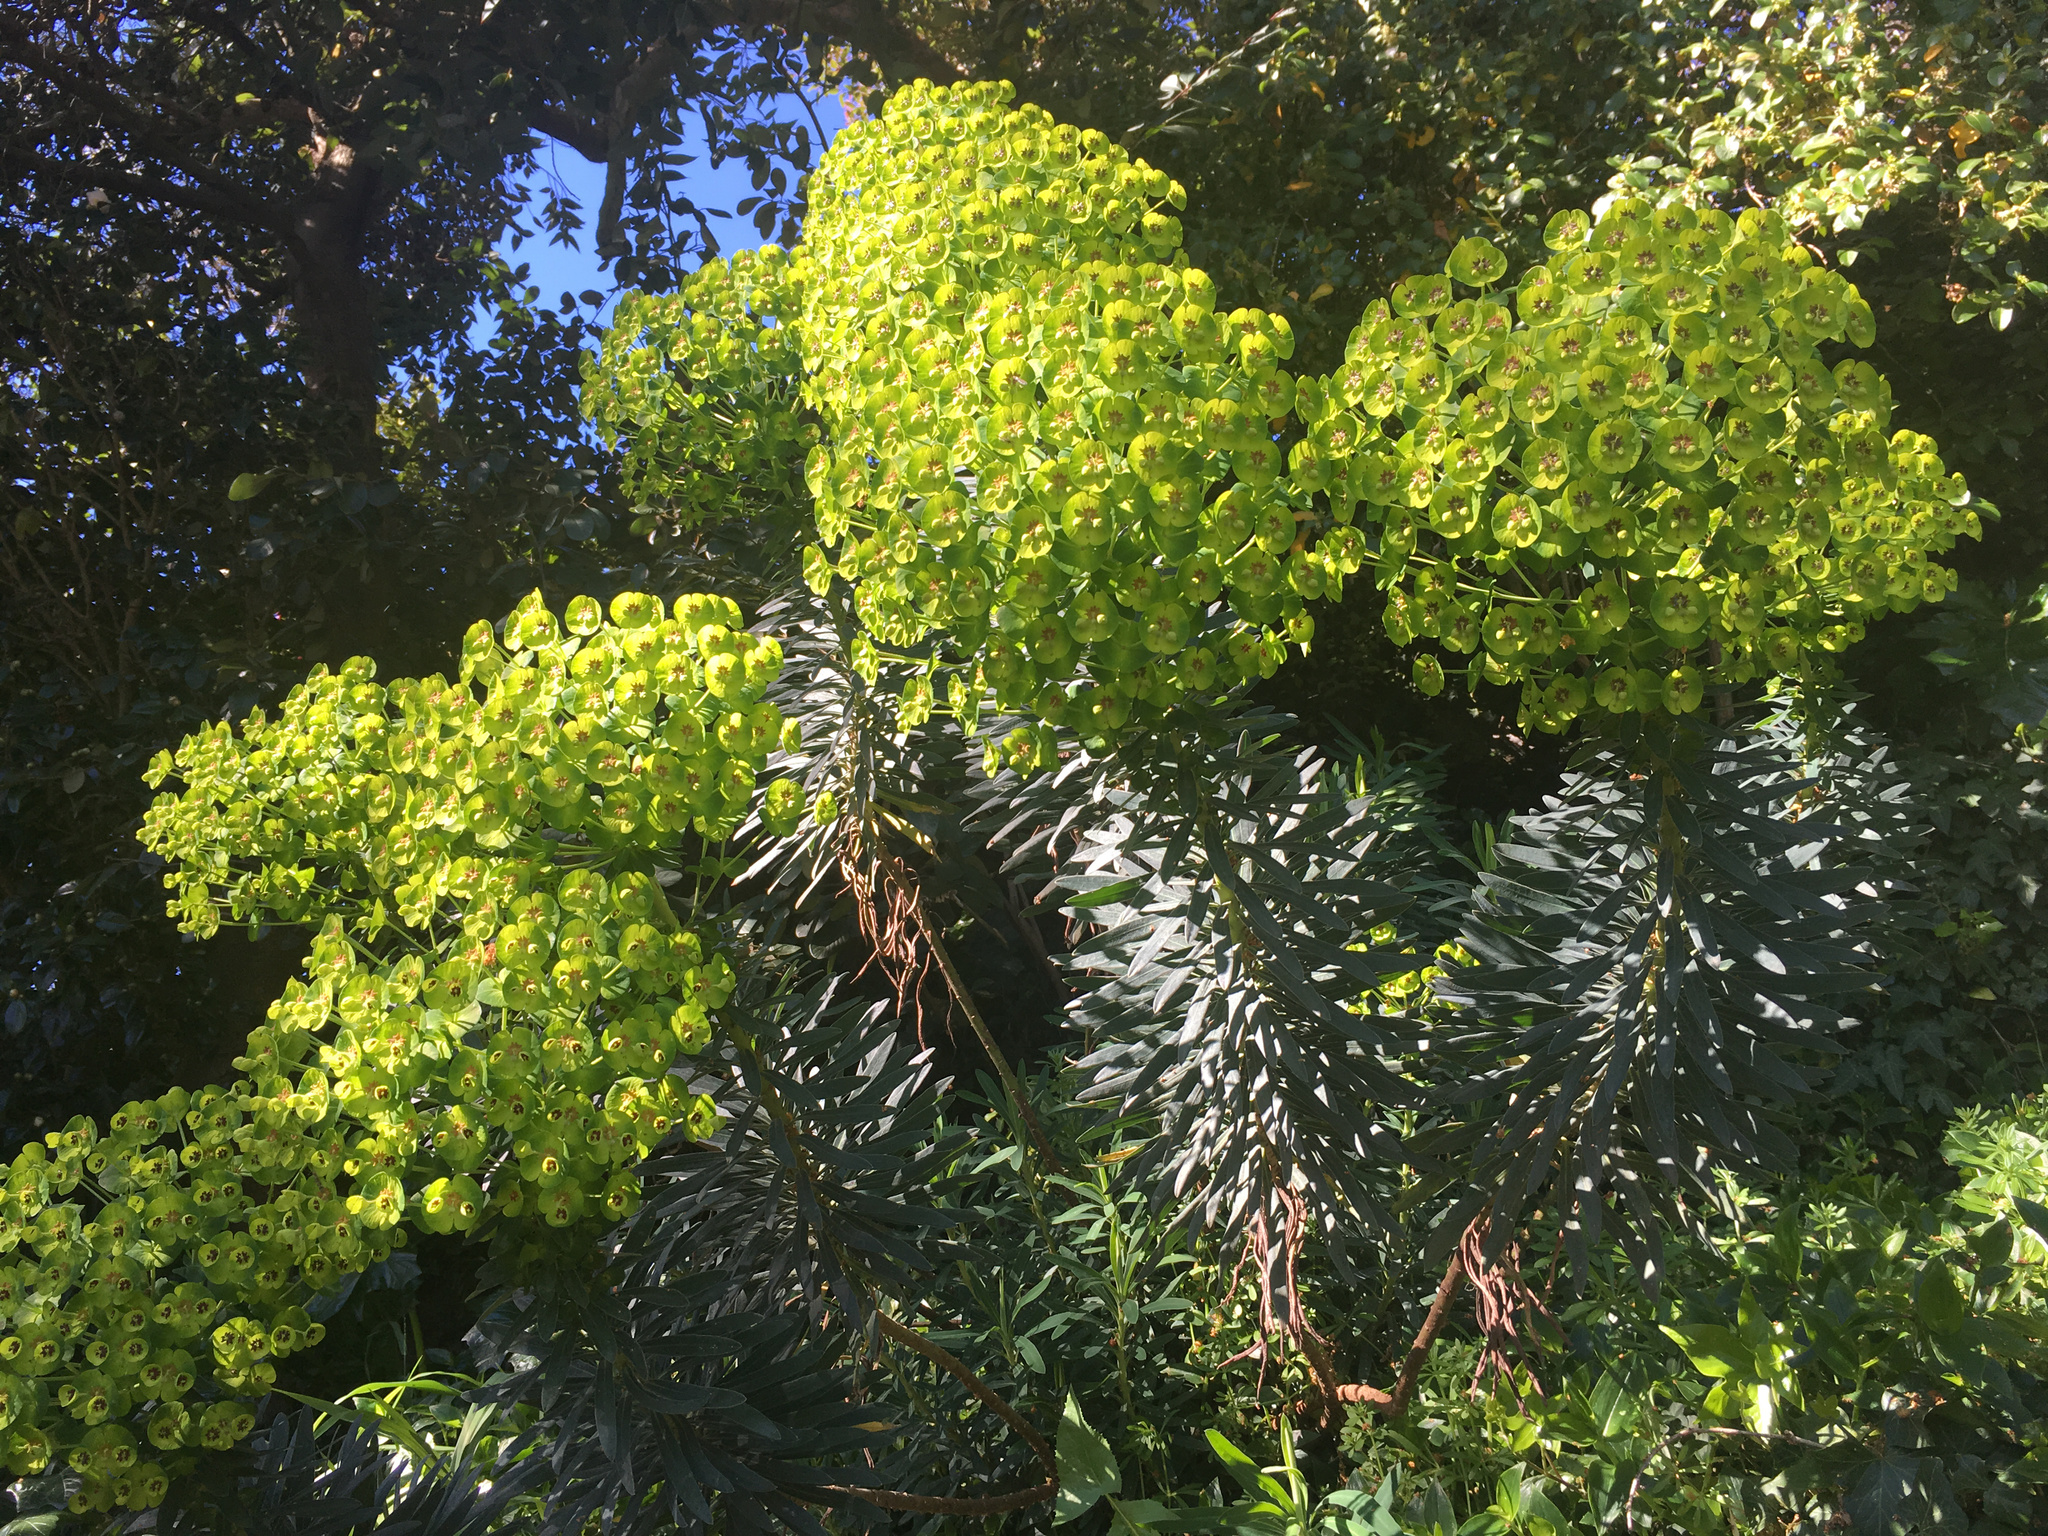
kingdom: Plantae
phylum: Tracheophyta
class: Magnoliopsida
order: Malpighiales
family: Euphorbiaceae
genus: Euphorbia
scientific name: Euphorbia characias
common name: Mediterranean spurge
